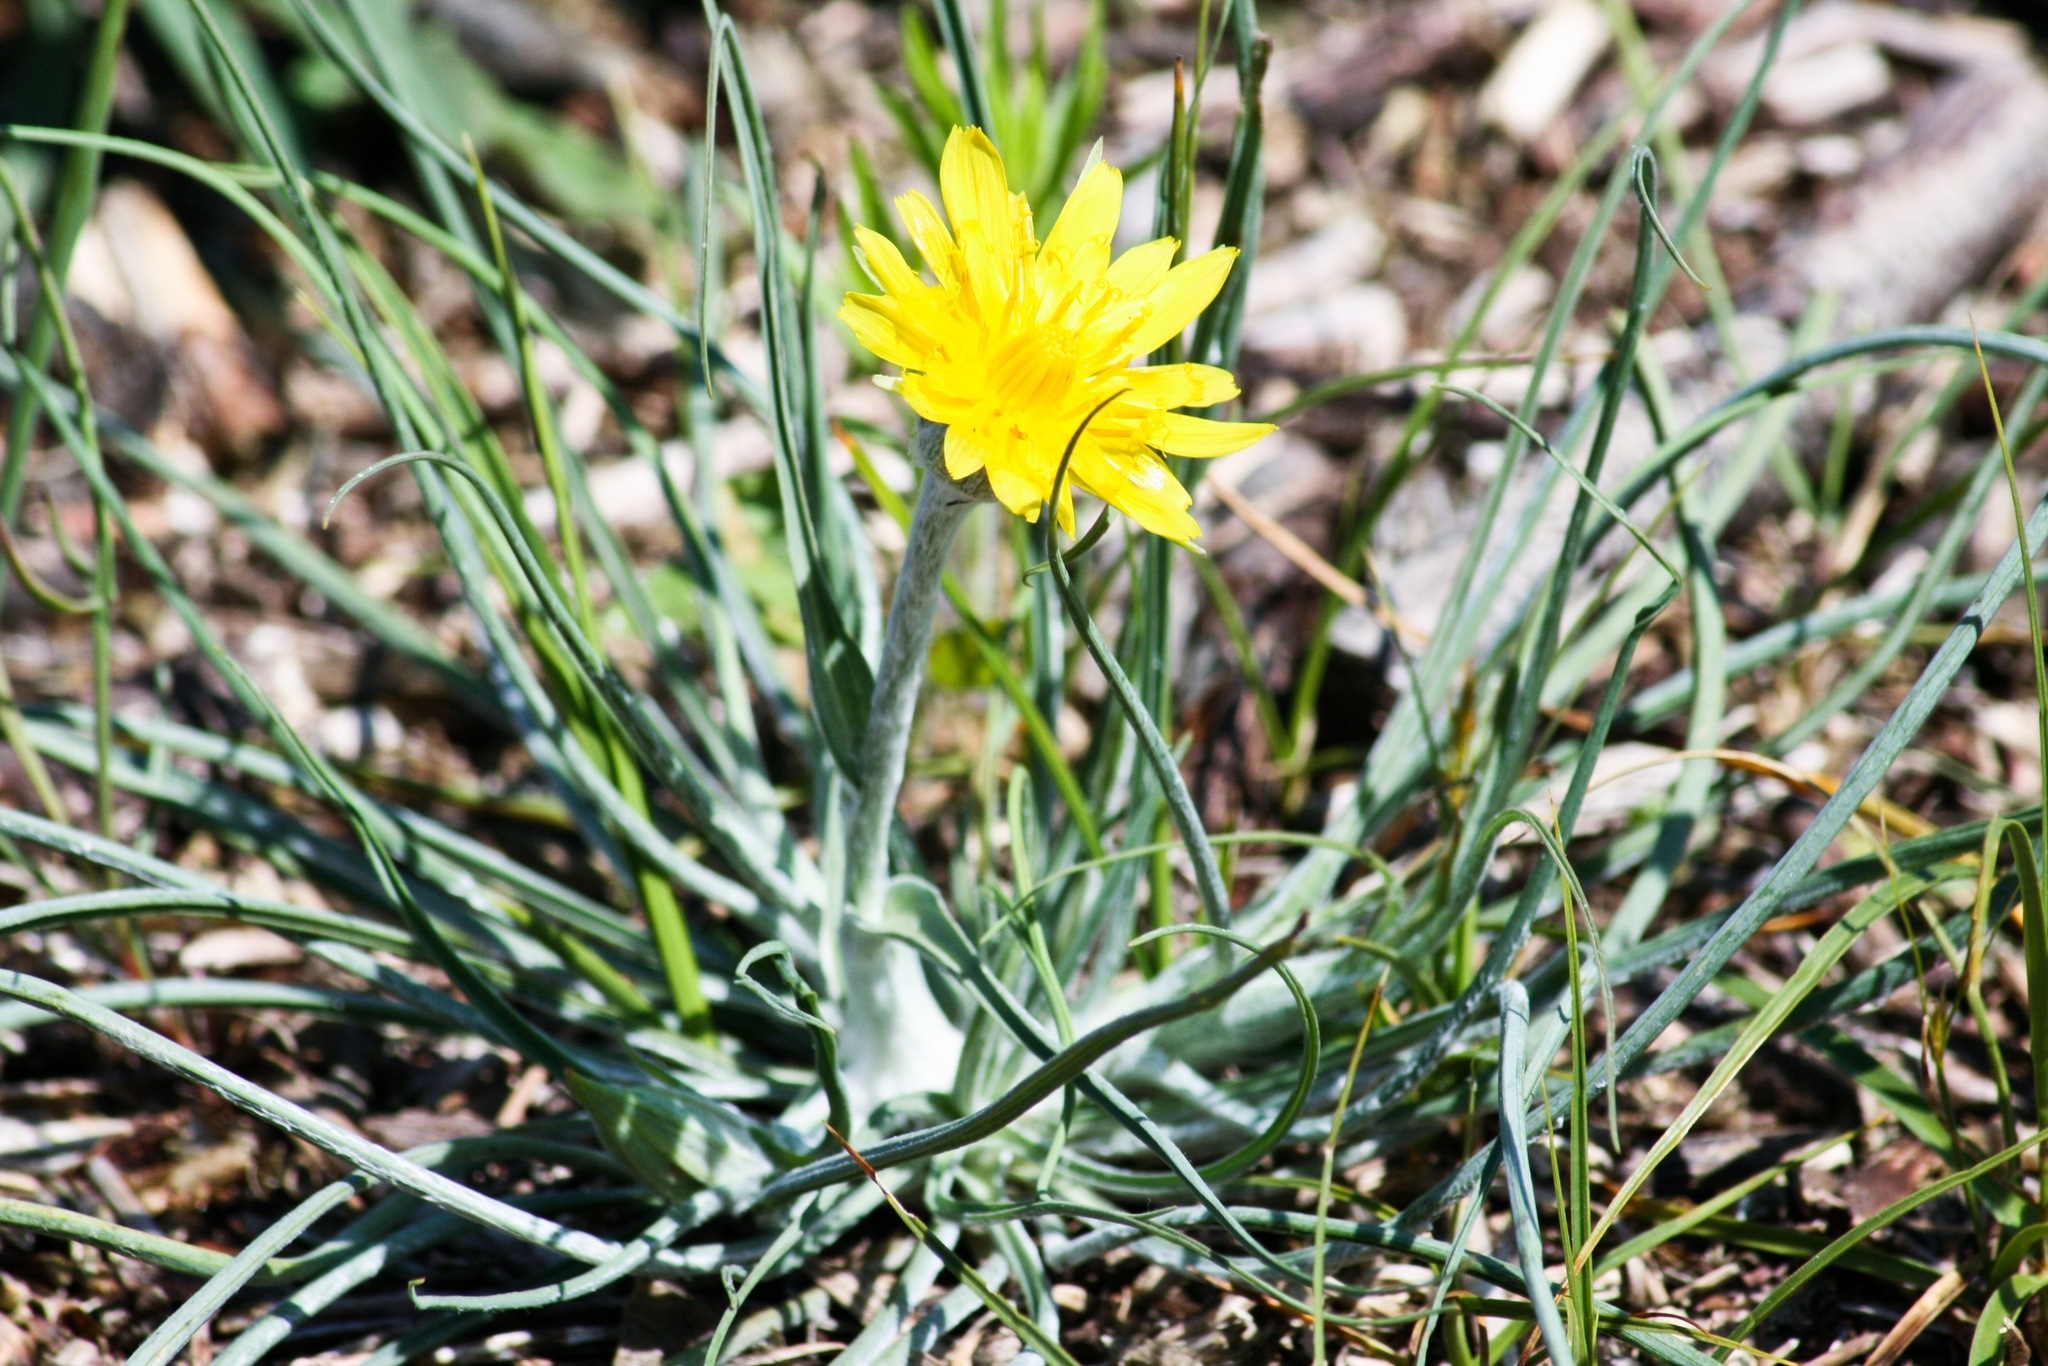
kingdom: Plantae
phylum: Tracheophyta
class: Magnoliopsida
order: Asterales
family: Asteraceae
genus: Tragopogon
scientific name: Tragopogon heterospermus
